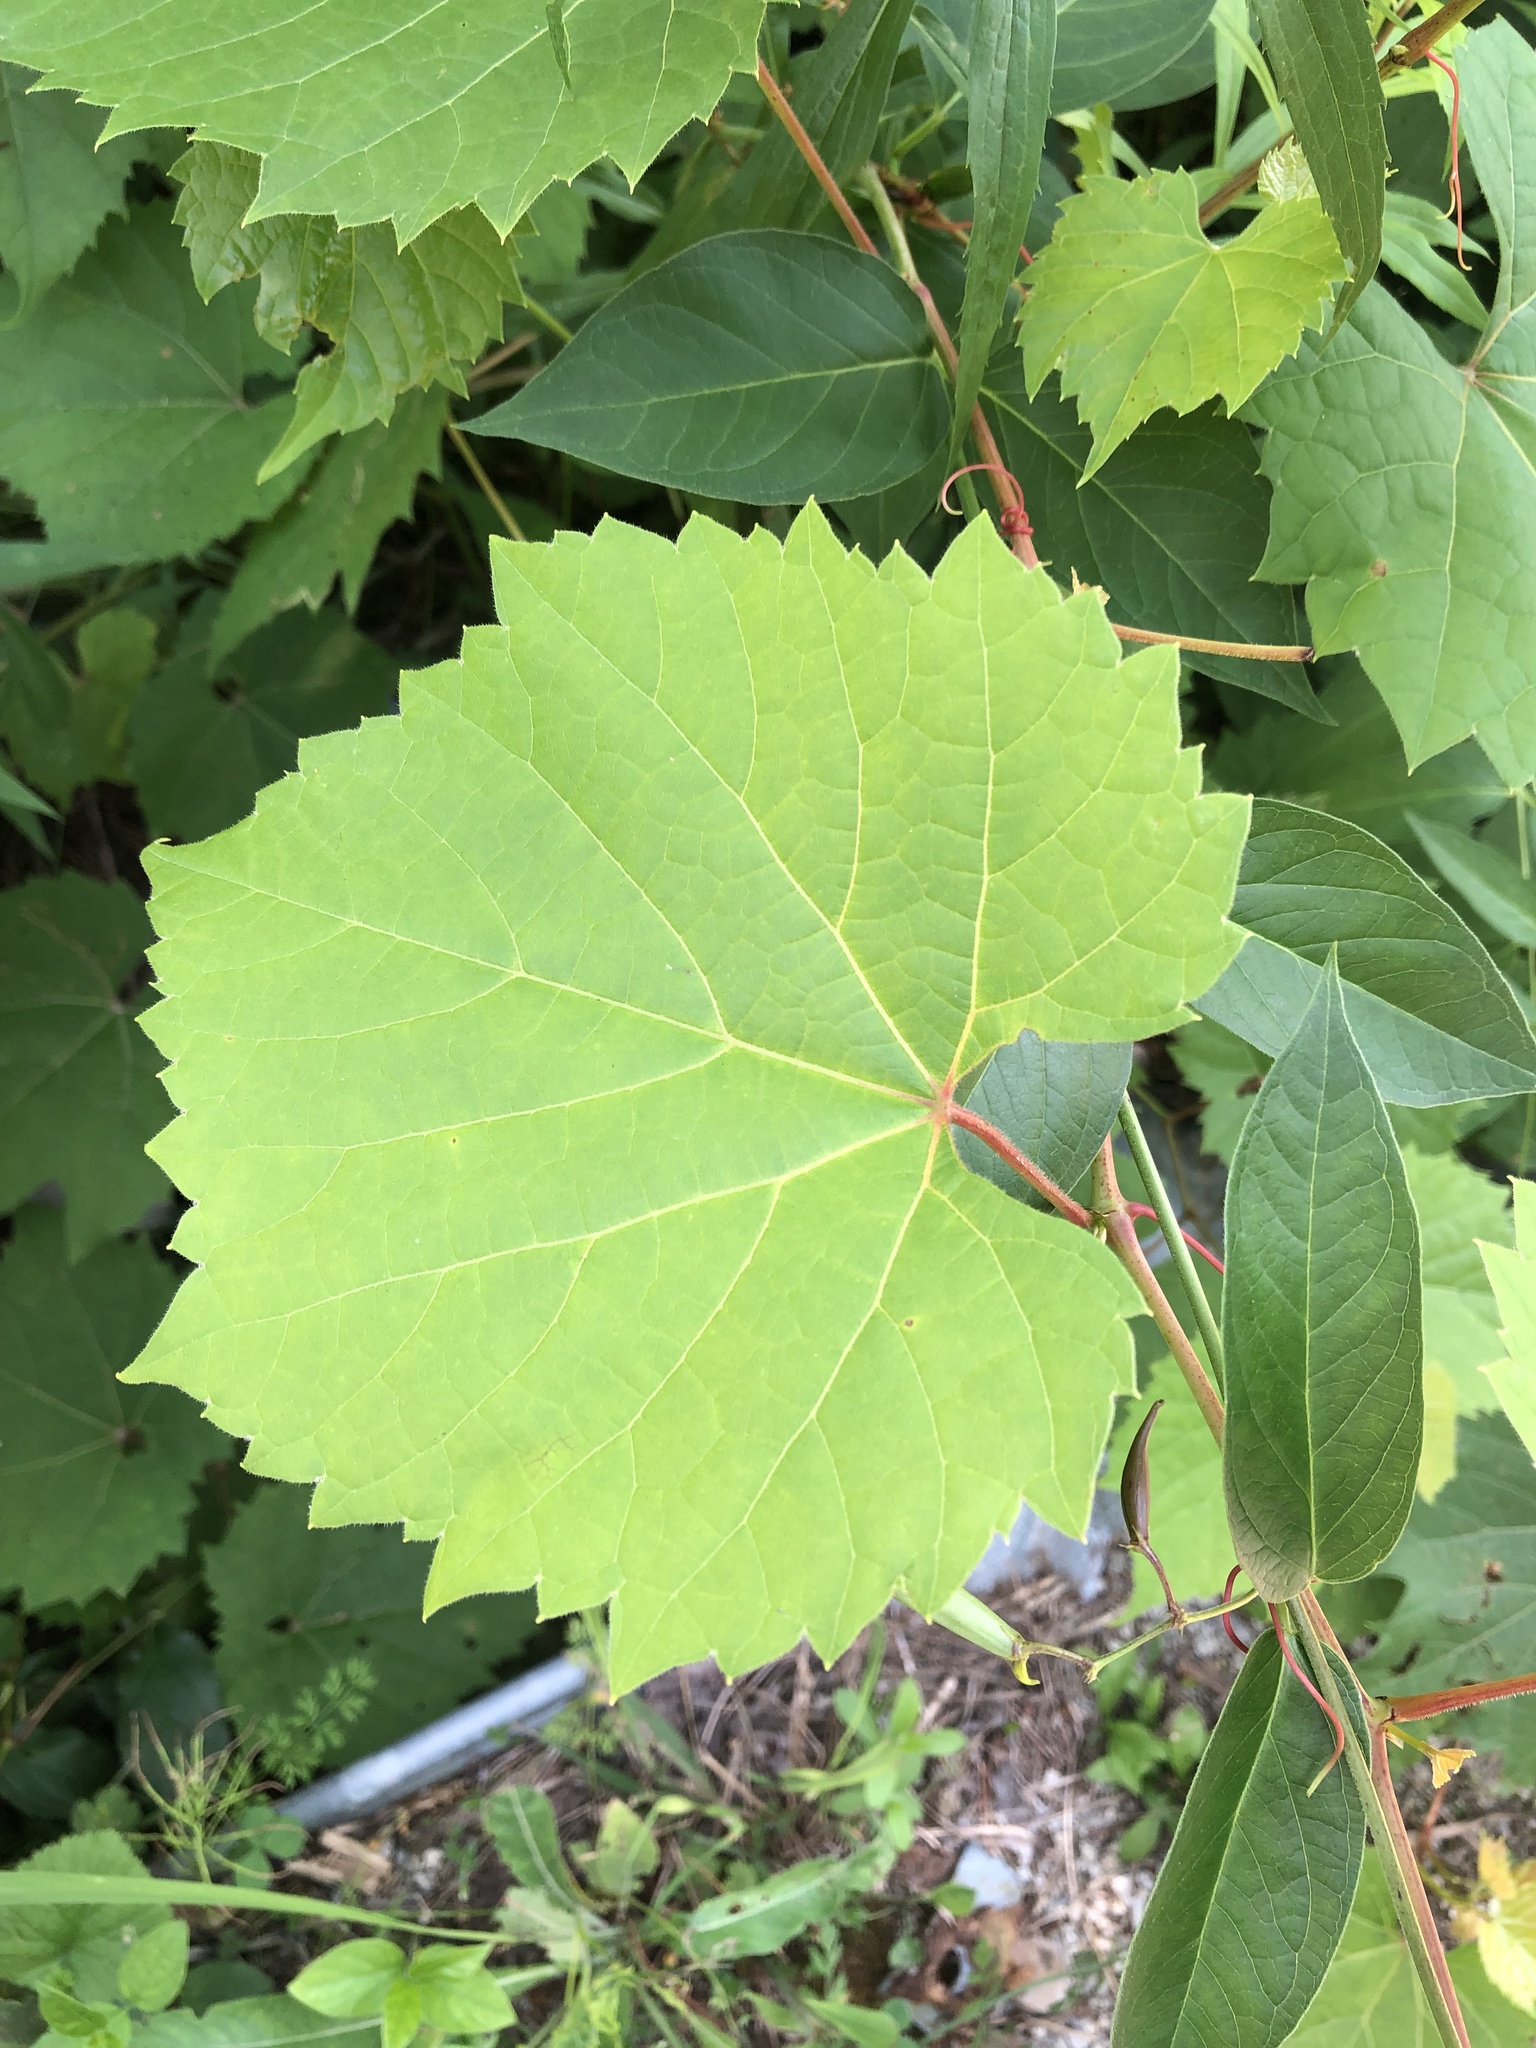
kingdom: Plantae
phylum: Tracheophyta
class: Magnoliopsida
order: Vitales
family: Vitaceae
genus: Vitis
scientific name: Vitis riparia
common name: Frost grape
